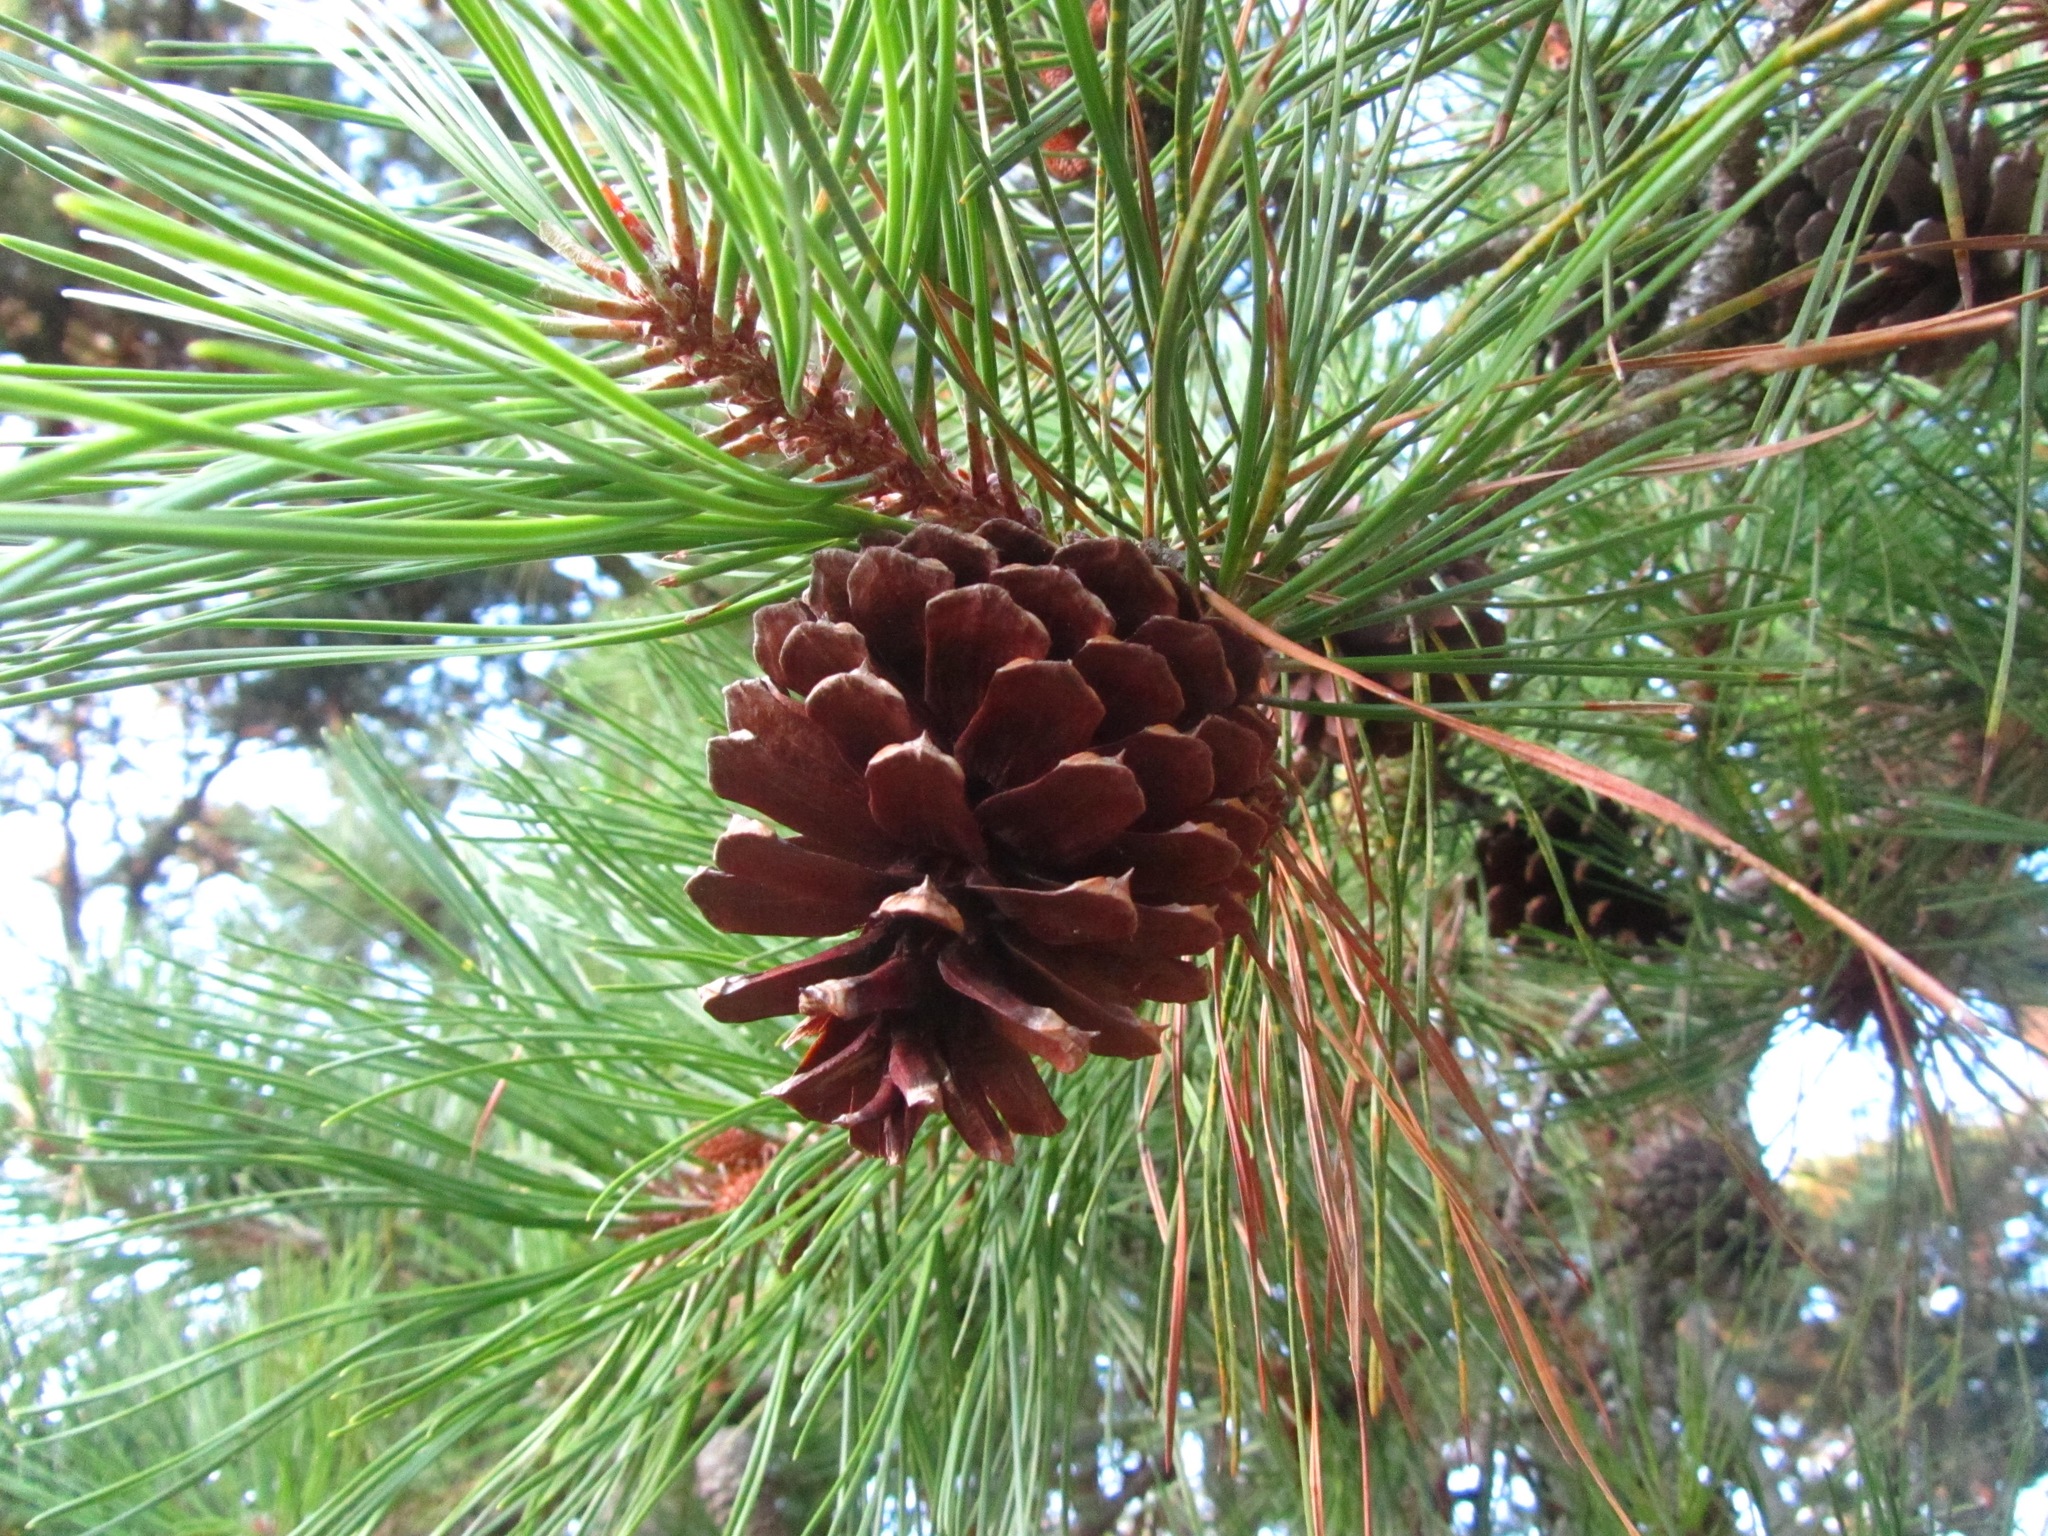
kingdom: Plantae
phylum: Tracheophyta
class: Pinopsida
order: Pinales
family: Pinaceae
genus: Pinus
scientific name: Pinus rigida
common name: Pitch pine
